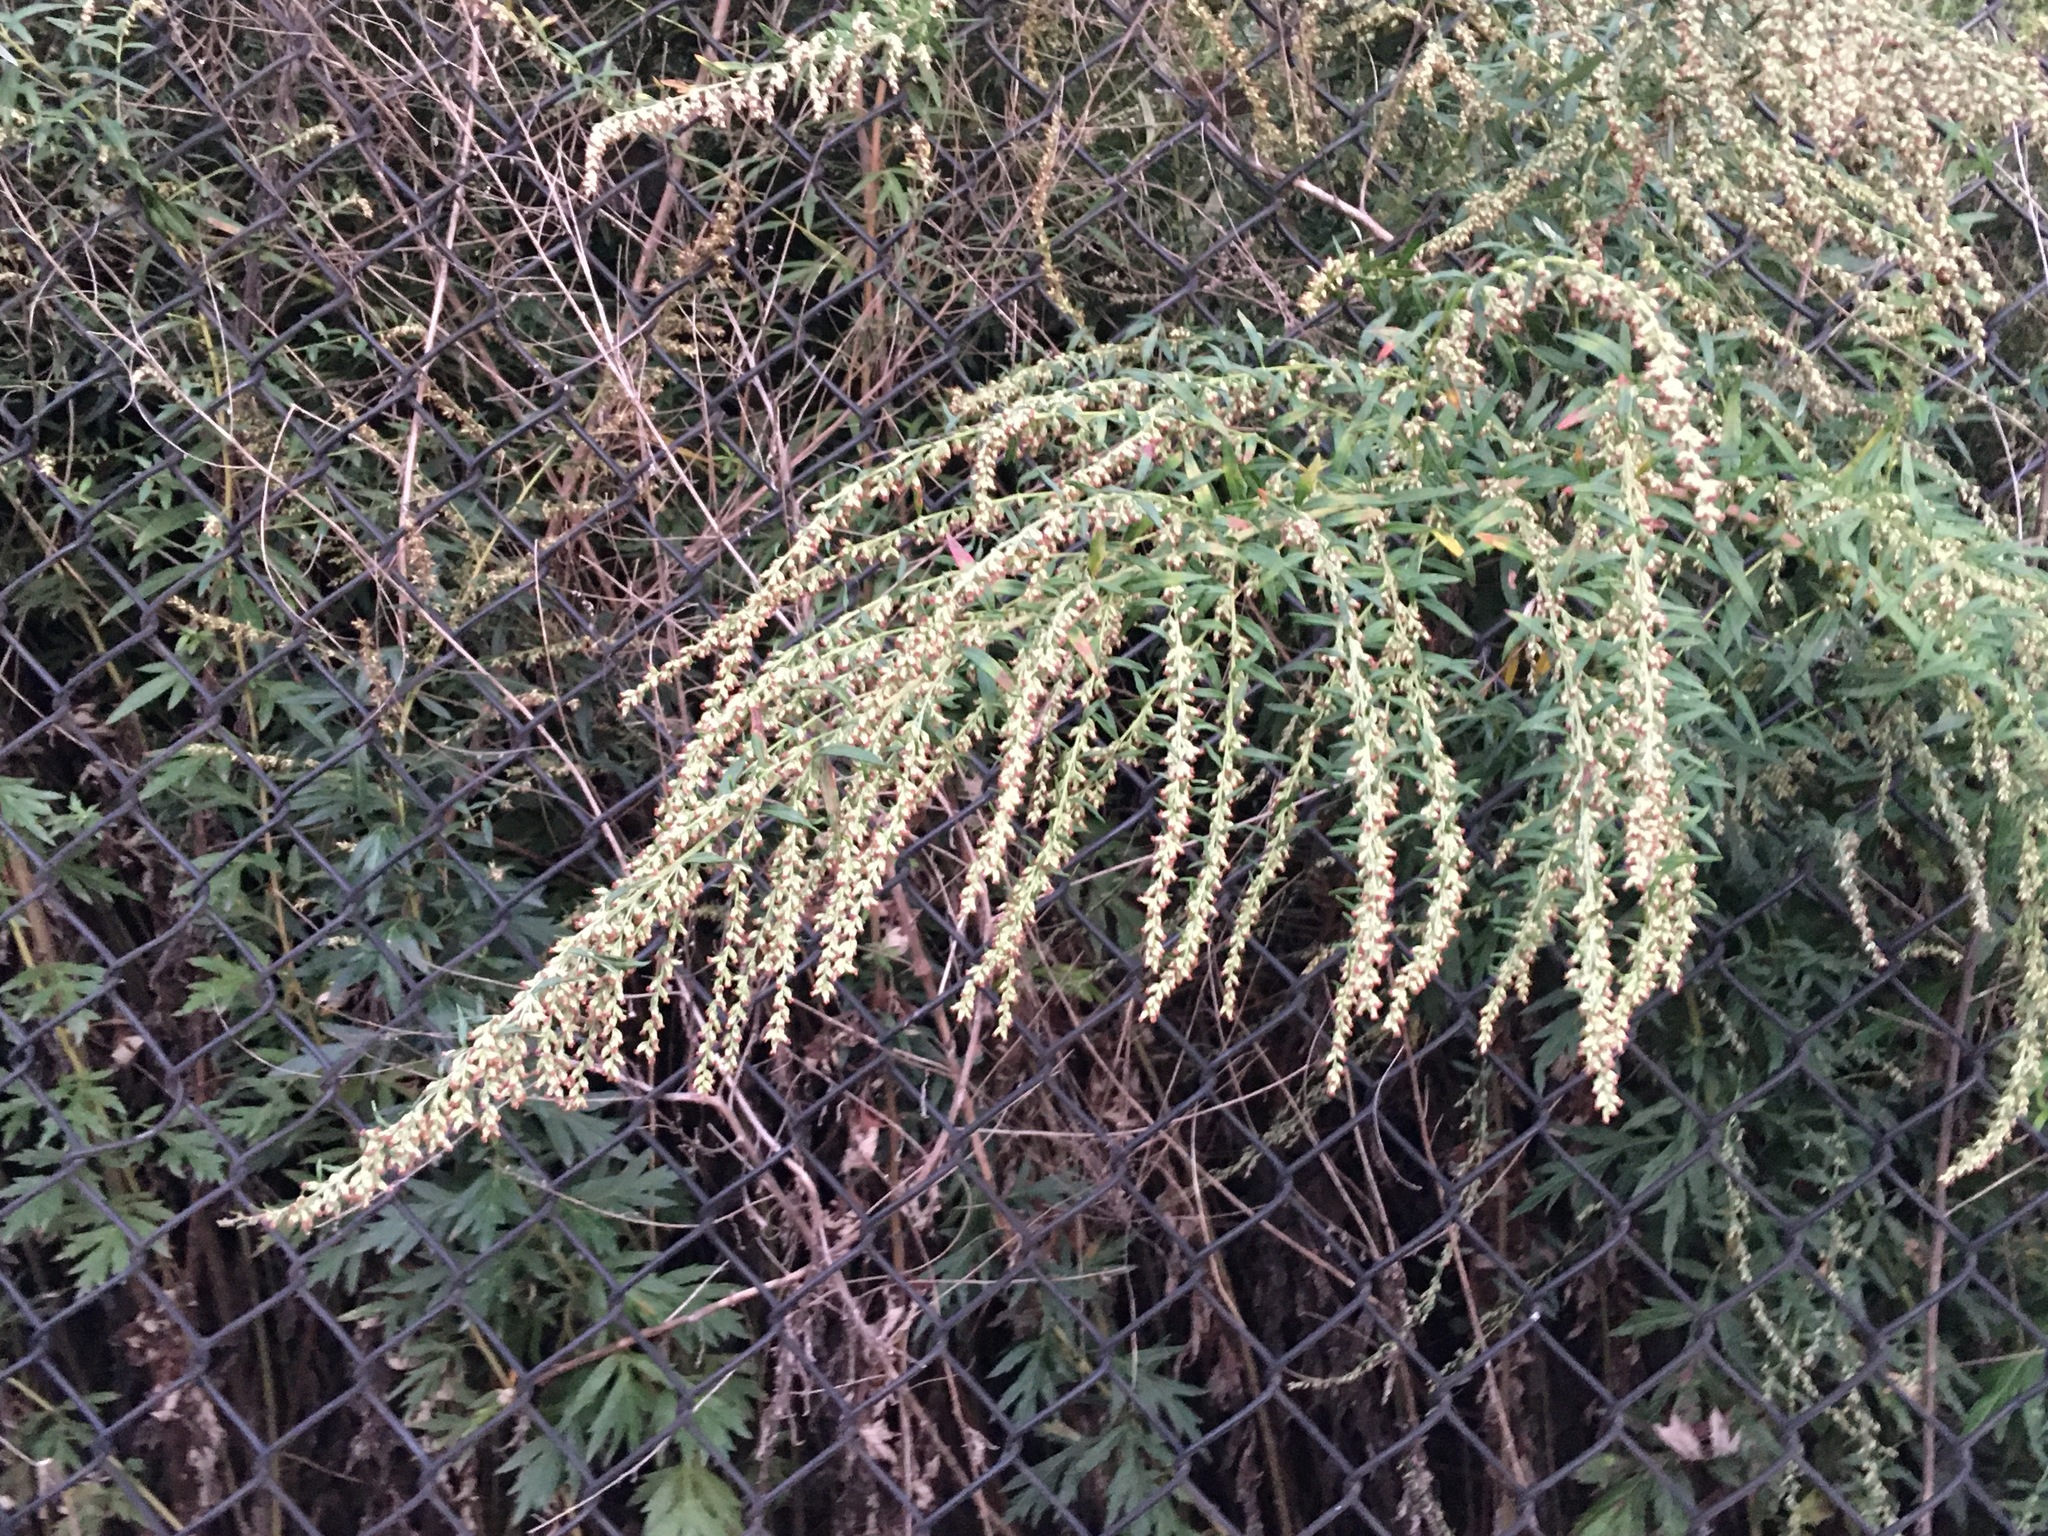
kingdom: Plantae
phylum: Tracheophyta
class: Magnoliopsida
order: Asterales
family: Asteraceae
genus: Artemisia
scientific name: Artemisia vulgaris
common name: Mugwort
